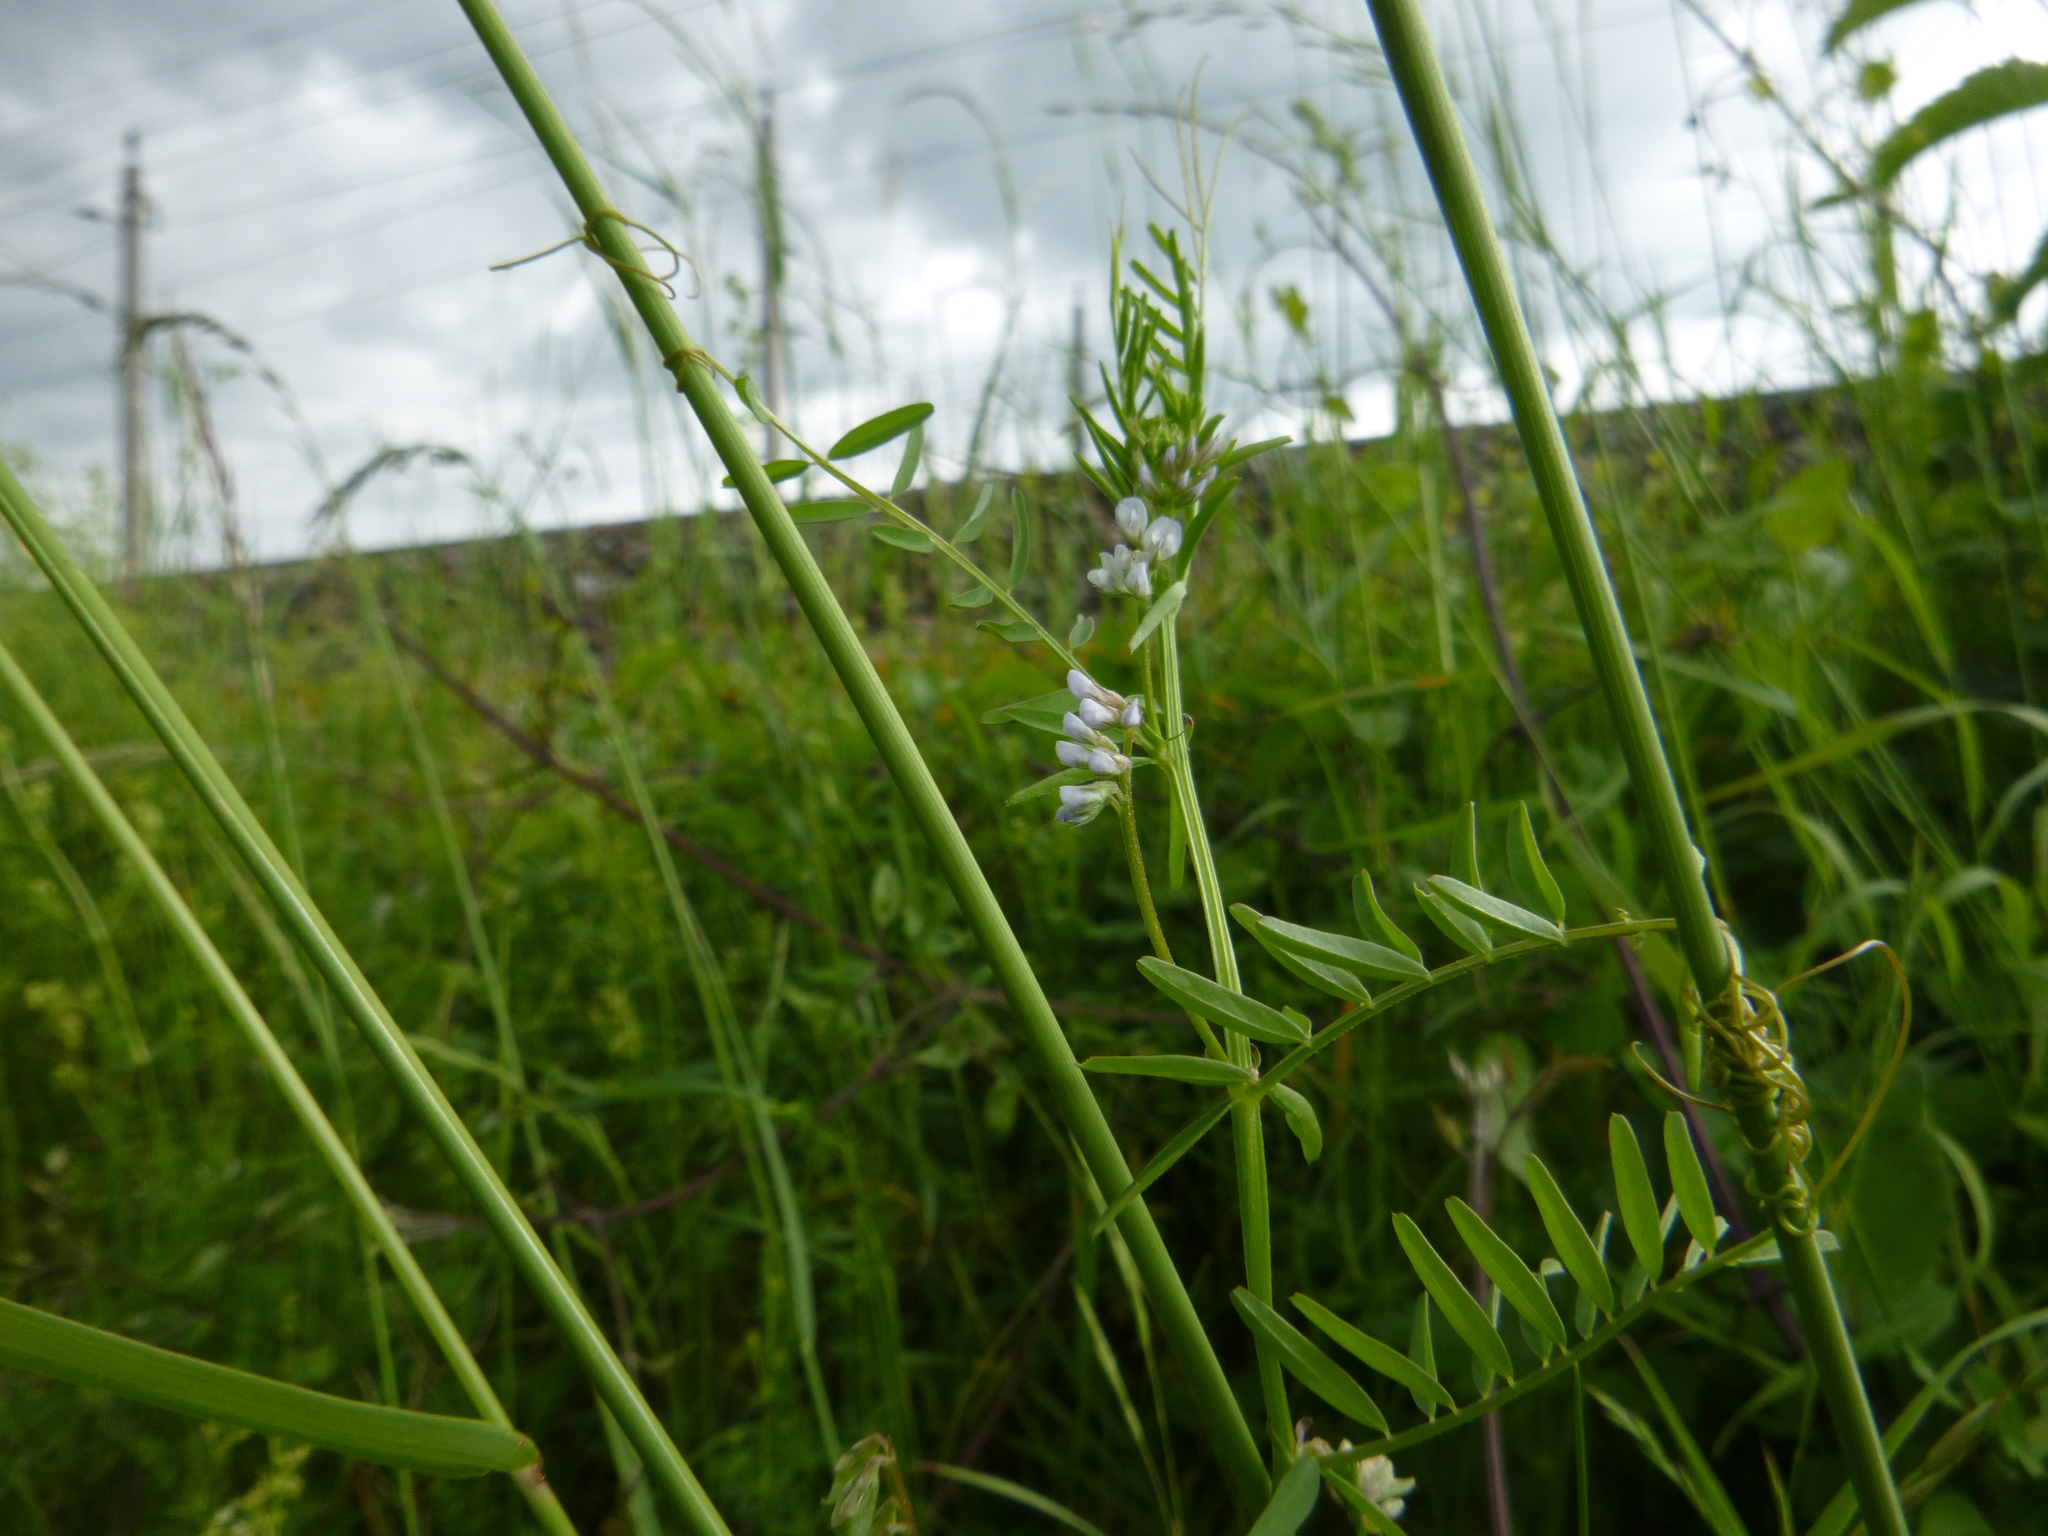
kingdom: Plantae
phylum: Tracheophyta
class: Magnoliopsida
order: Fabales
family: Fabaceae
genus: Vicia
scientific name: Vicia hirsuta
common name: Tiny vetch
